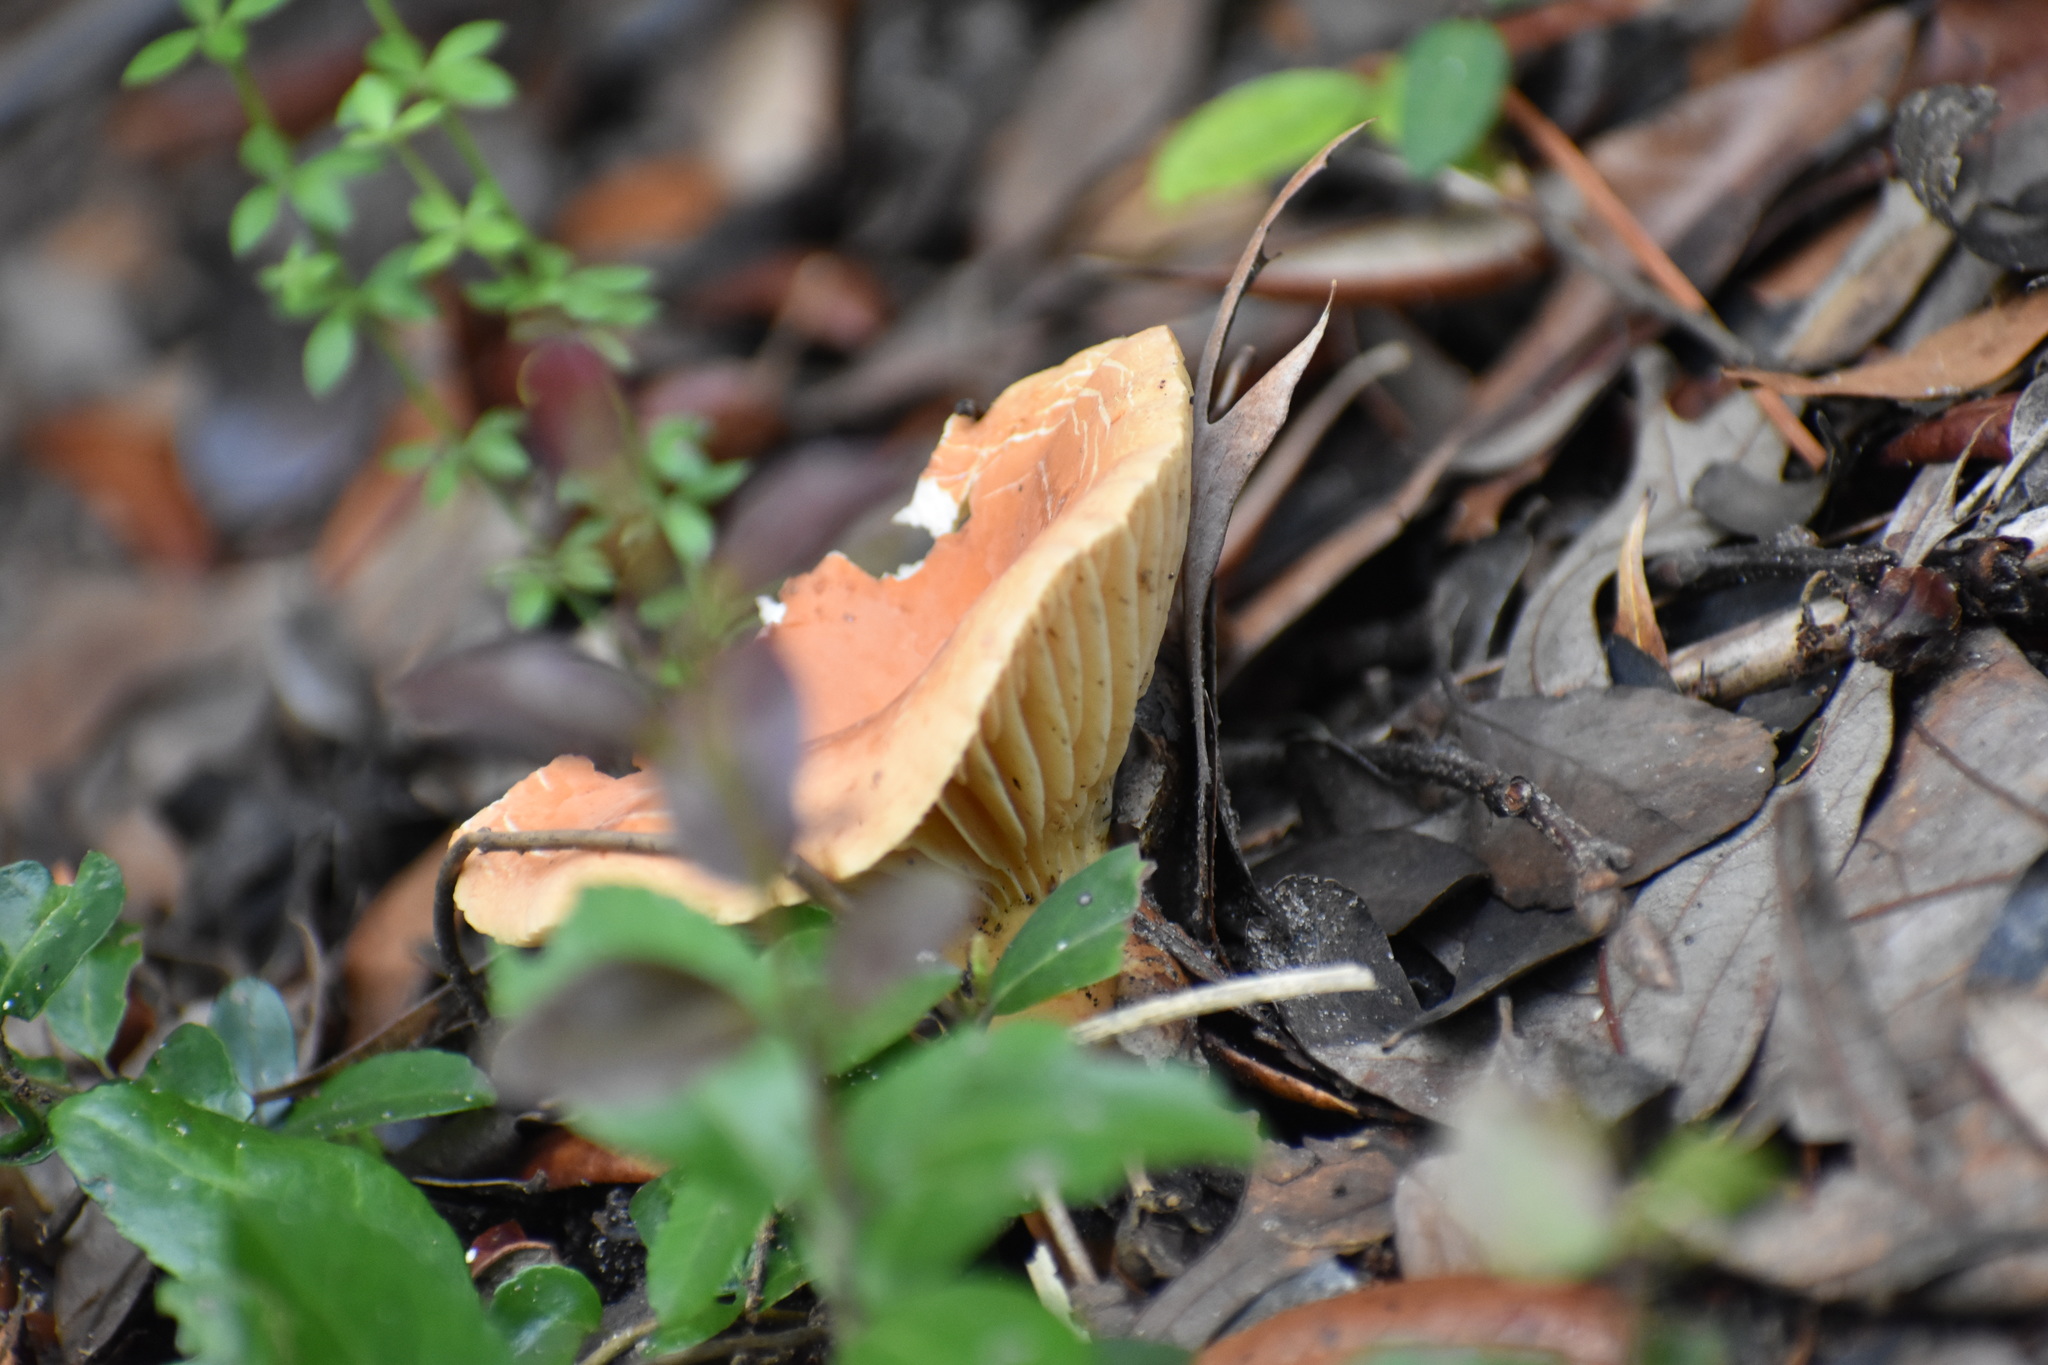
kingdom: Fungi
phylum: Basidiomycota
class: Agaricomycetes
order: Russulales
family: Russulaceae
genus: Lactarius
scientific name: Lactarius hygrophoroides
